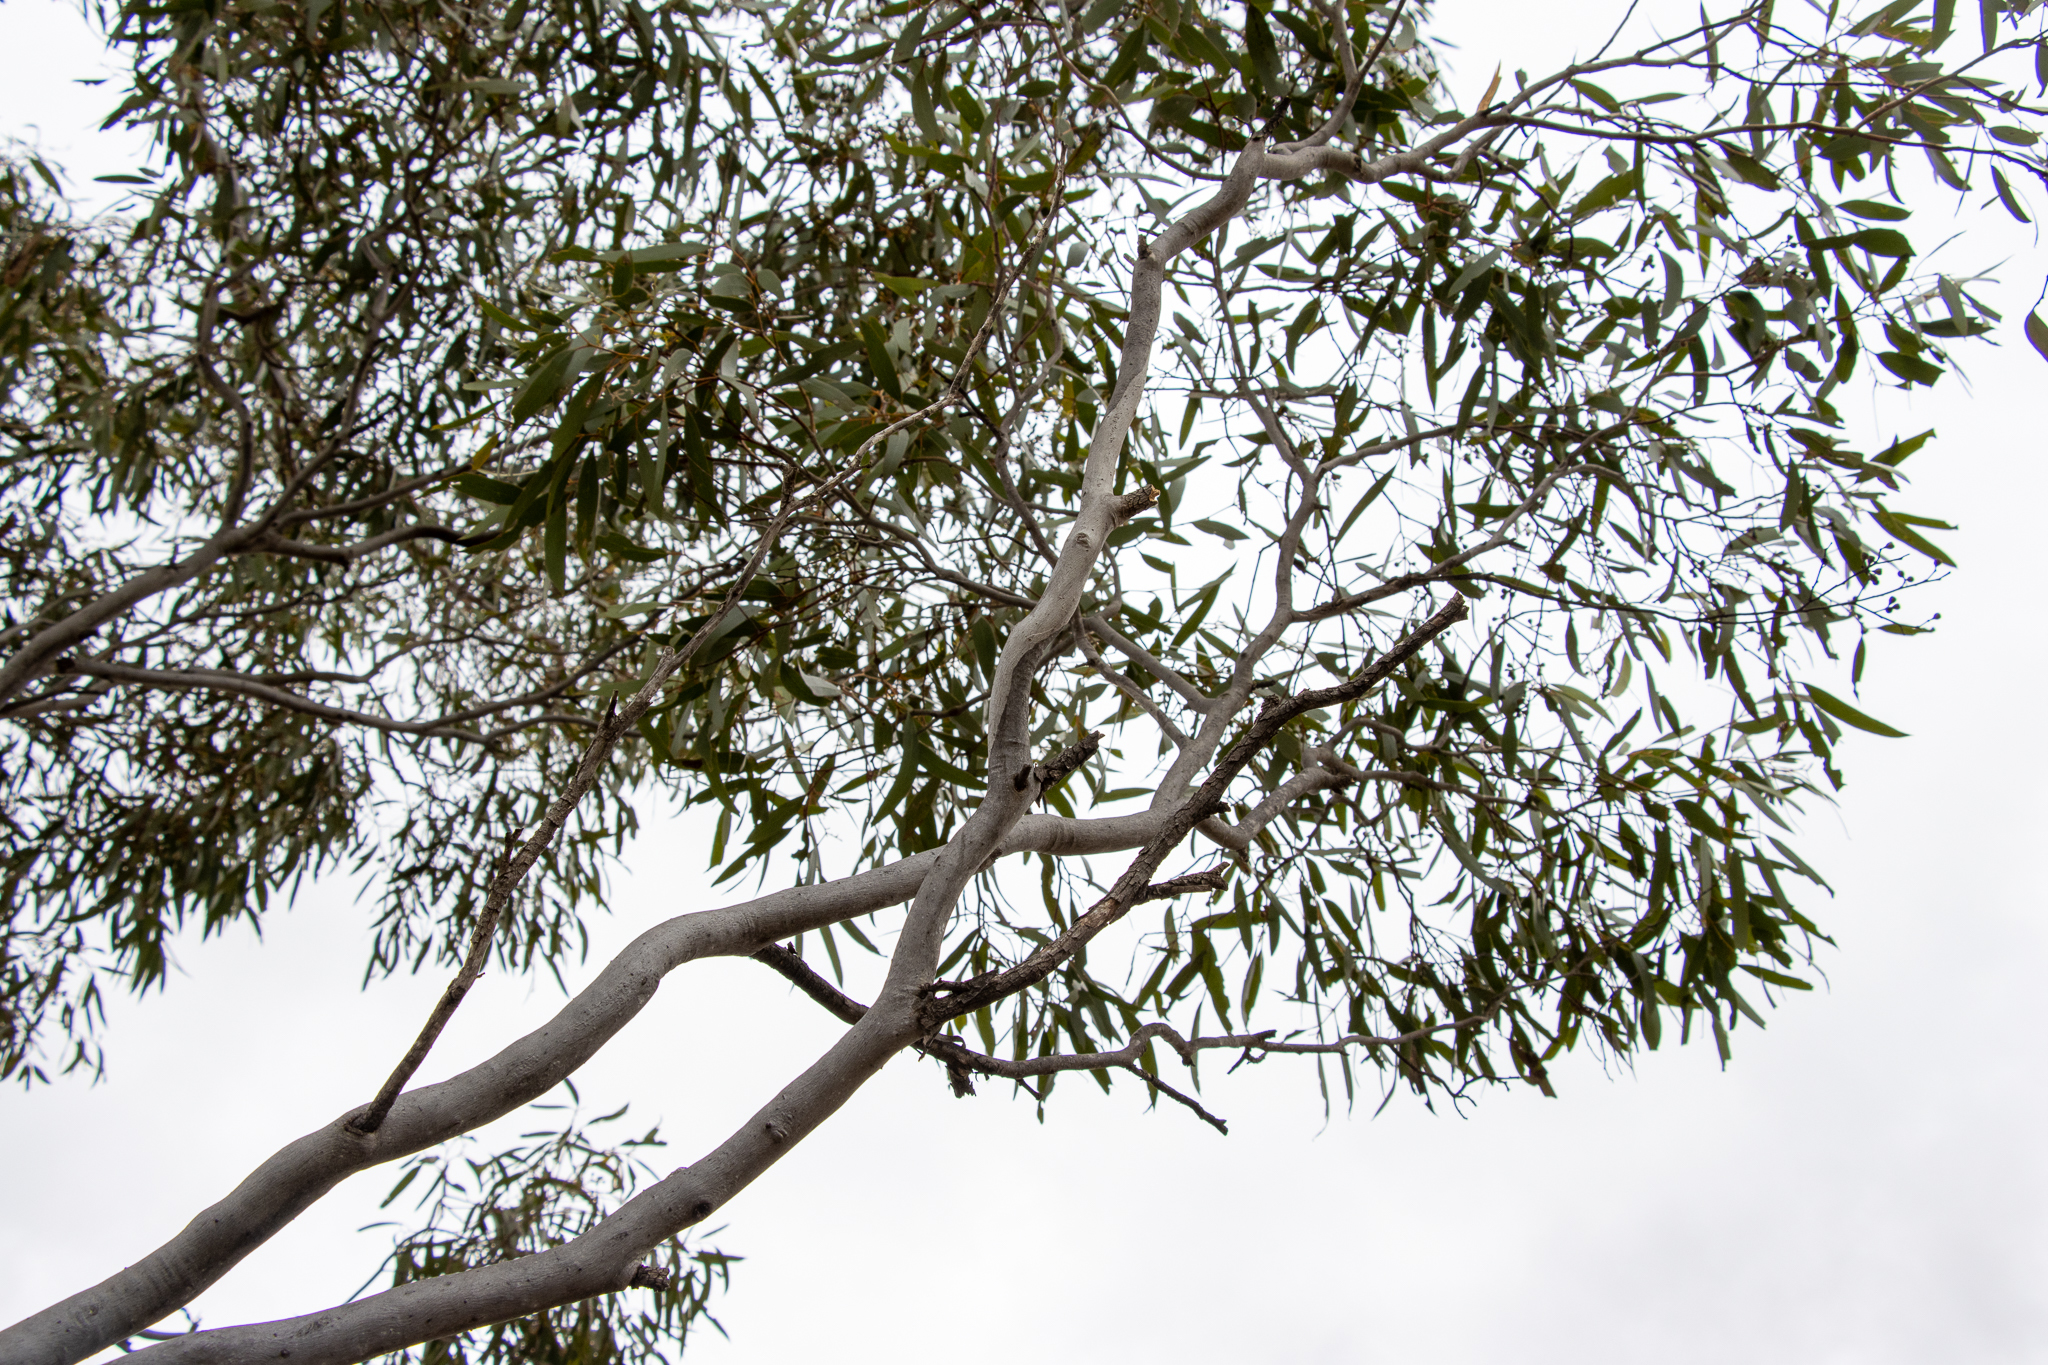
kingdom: Plantae
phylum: Tracheophyta
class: Magnoliopsida
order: Myrtales
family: Myrtaceae
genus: Eucalyptus
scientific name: Eucalyptus gracilis
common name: White mallee
